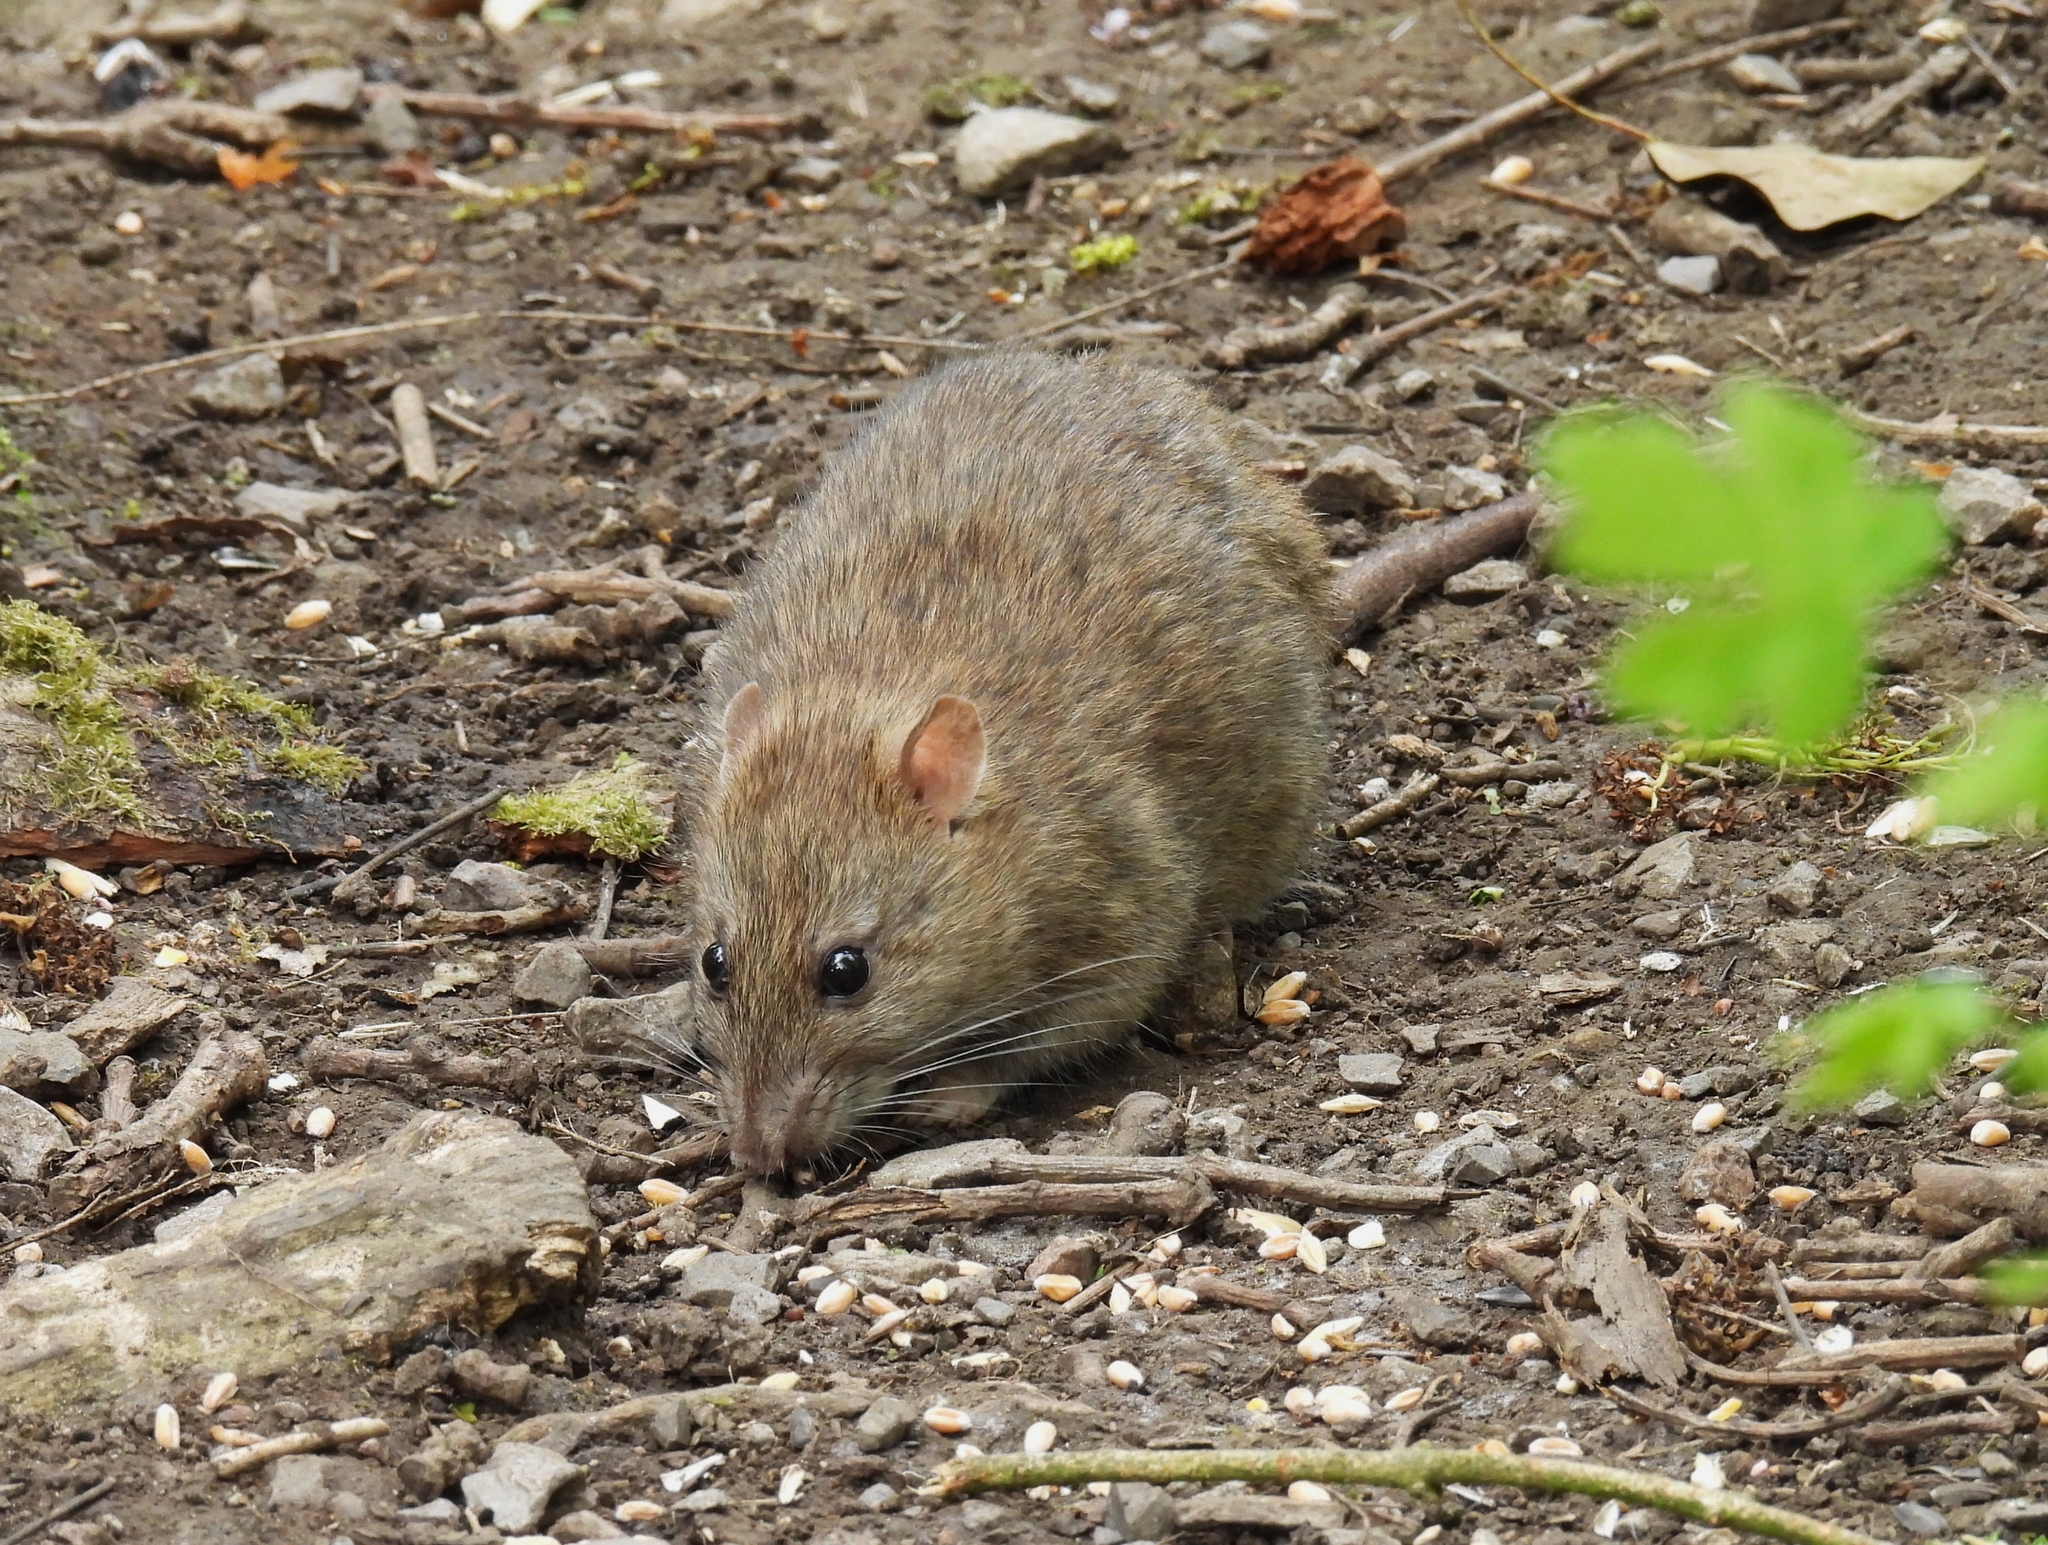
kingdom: Animalia
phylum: Chordata
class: Mammalia
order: Rodentia
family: Muridae
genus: Rattus
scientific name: Rattus norvegicus
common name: Brown rat
